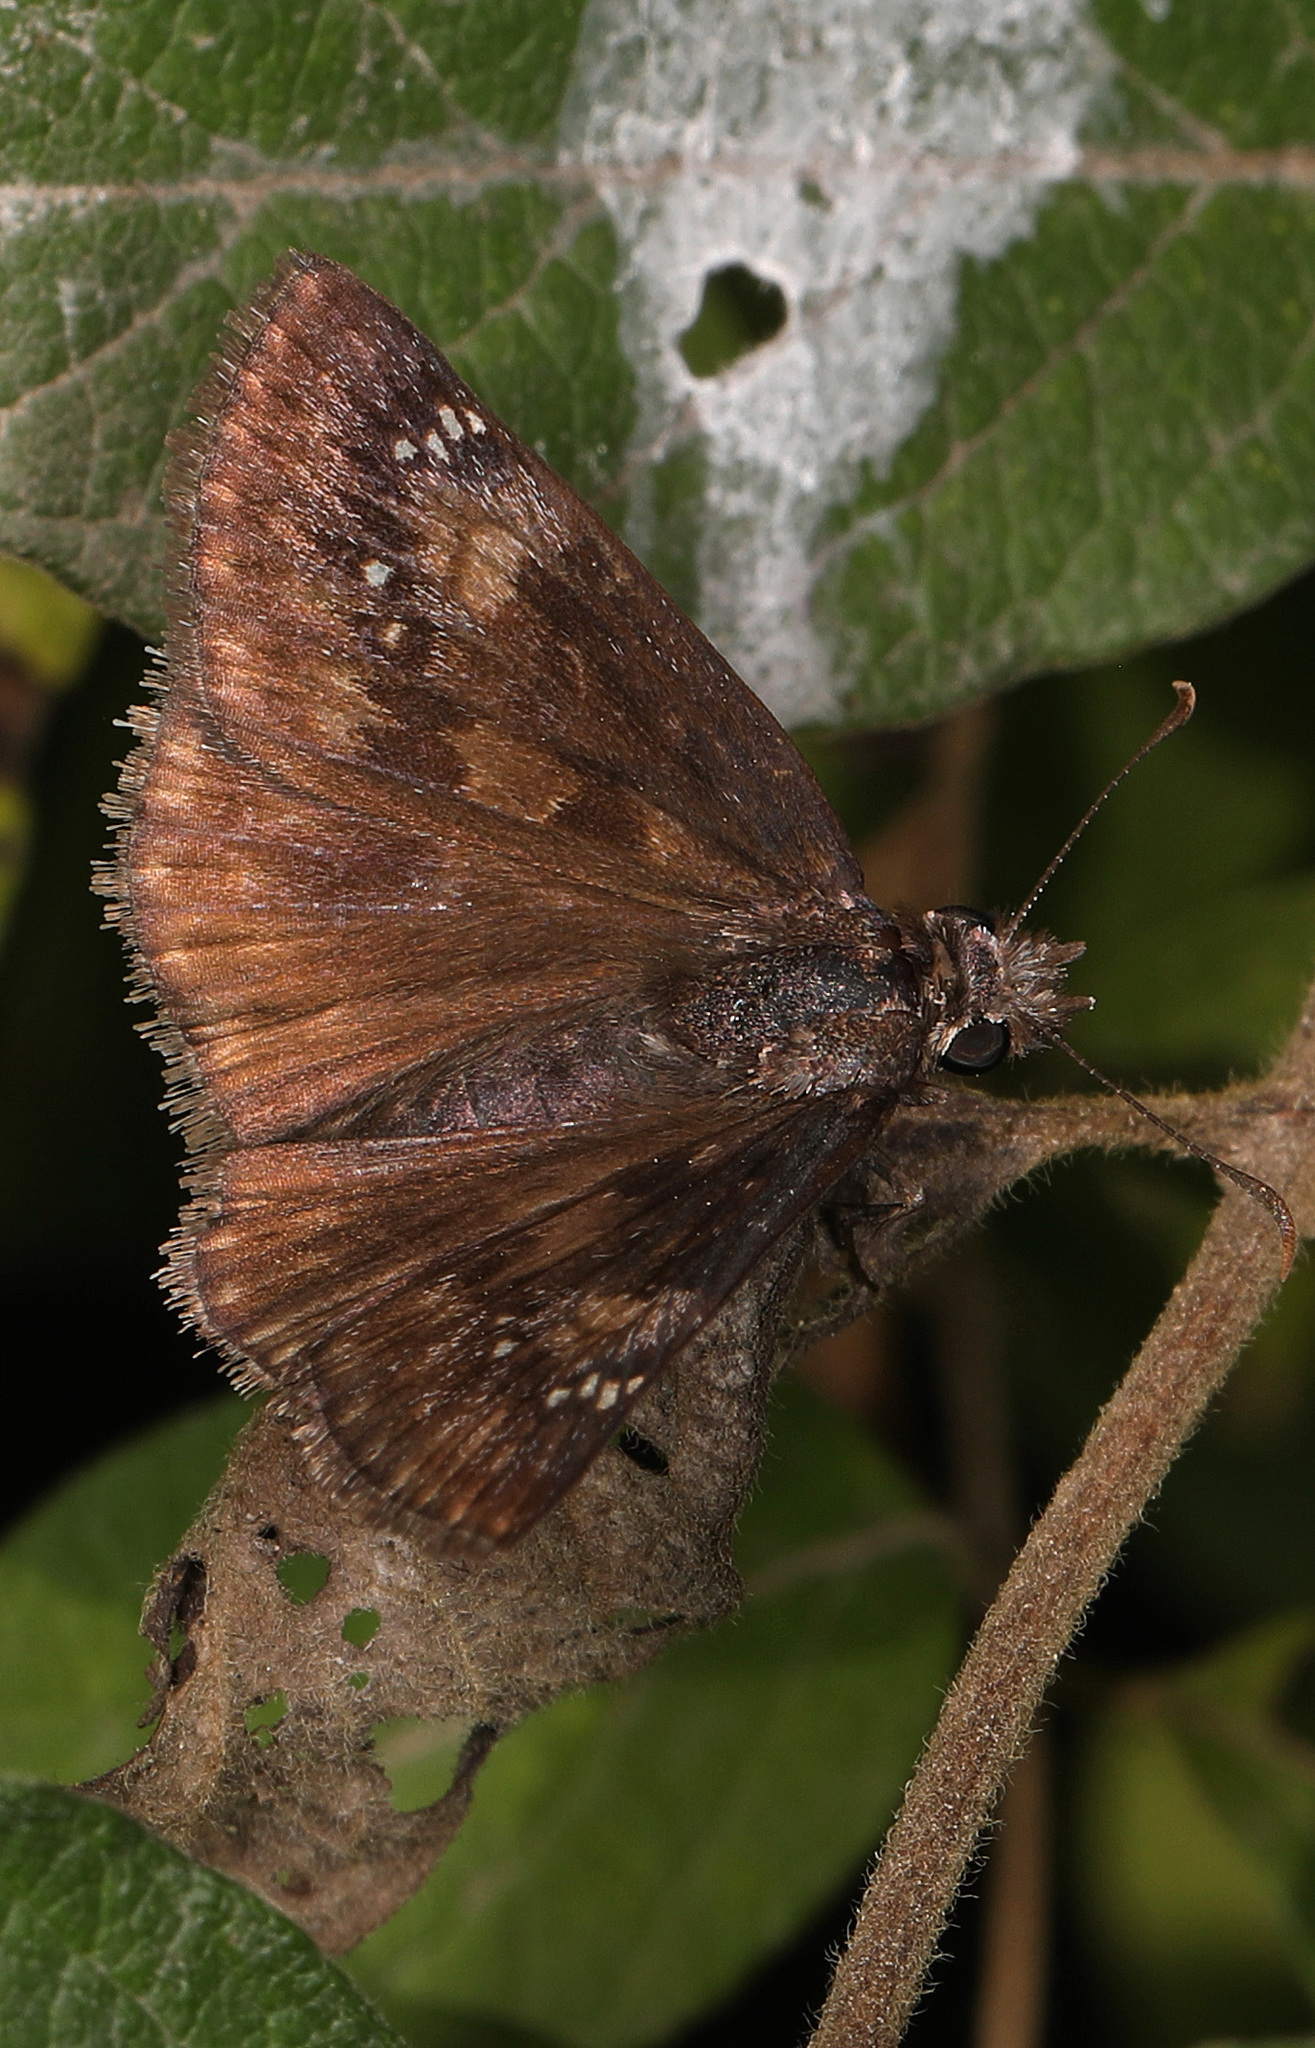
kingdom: Animalia
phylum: Arthropoda
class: Insecta
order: Lepidoptera
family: Hesperiidae
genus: Erynnis
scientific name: Erynnis baptisiae
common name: Wild indigo duskywing
